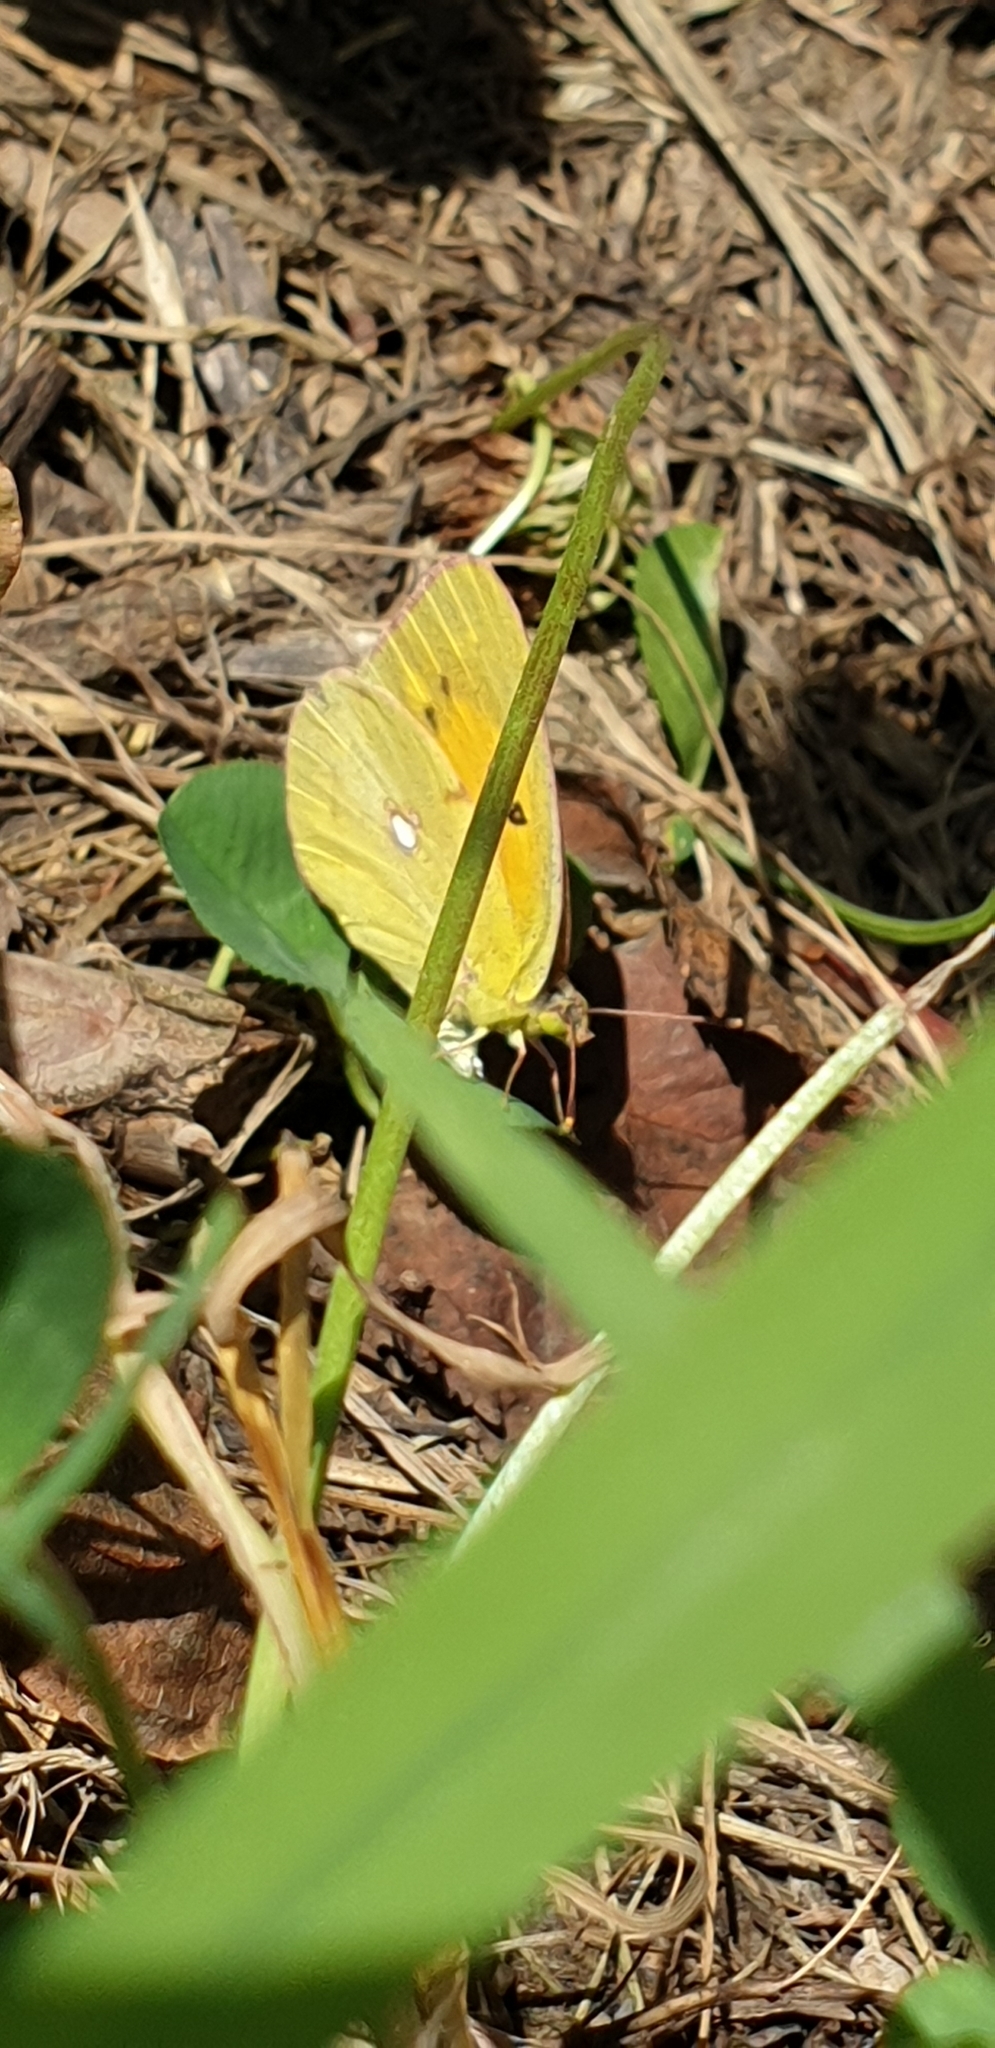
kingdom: Animalia
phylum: Arthropoda
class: Insecta
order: Lepidoptera
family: Pieridae
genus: Colias
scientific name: Colias croceus
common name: Clouded yellow
